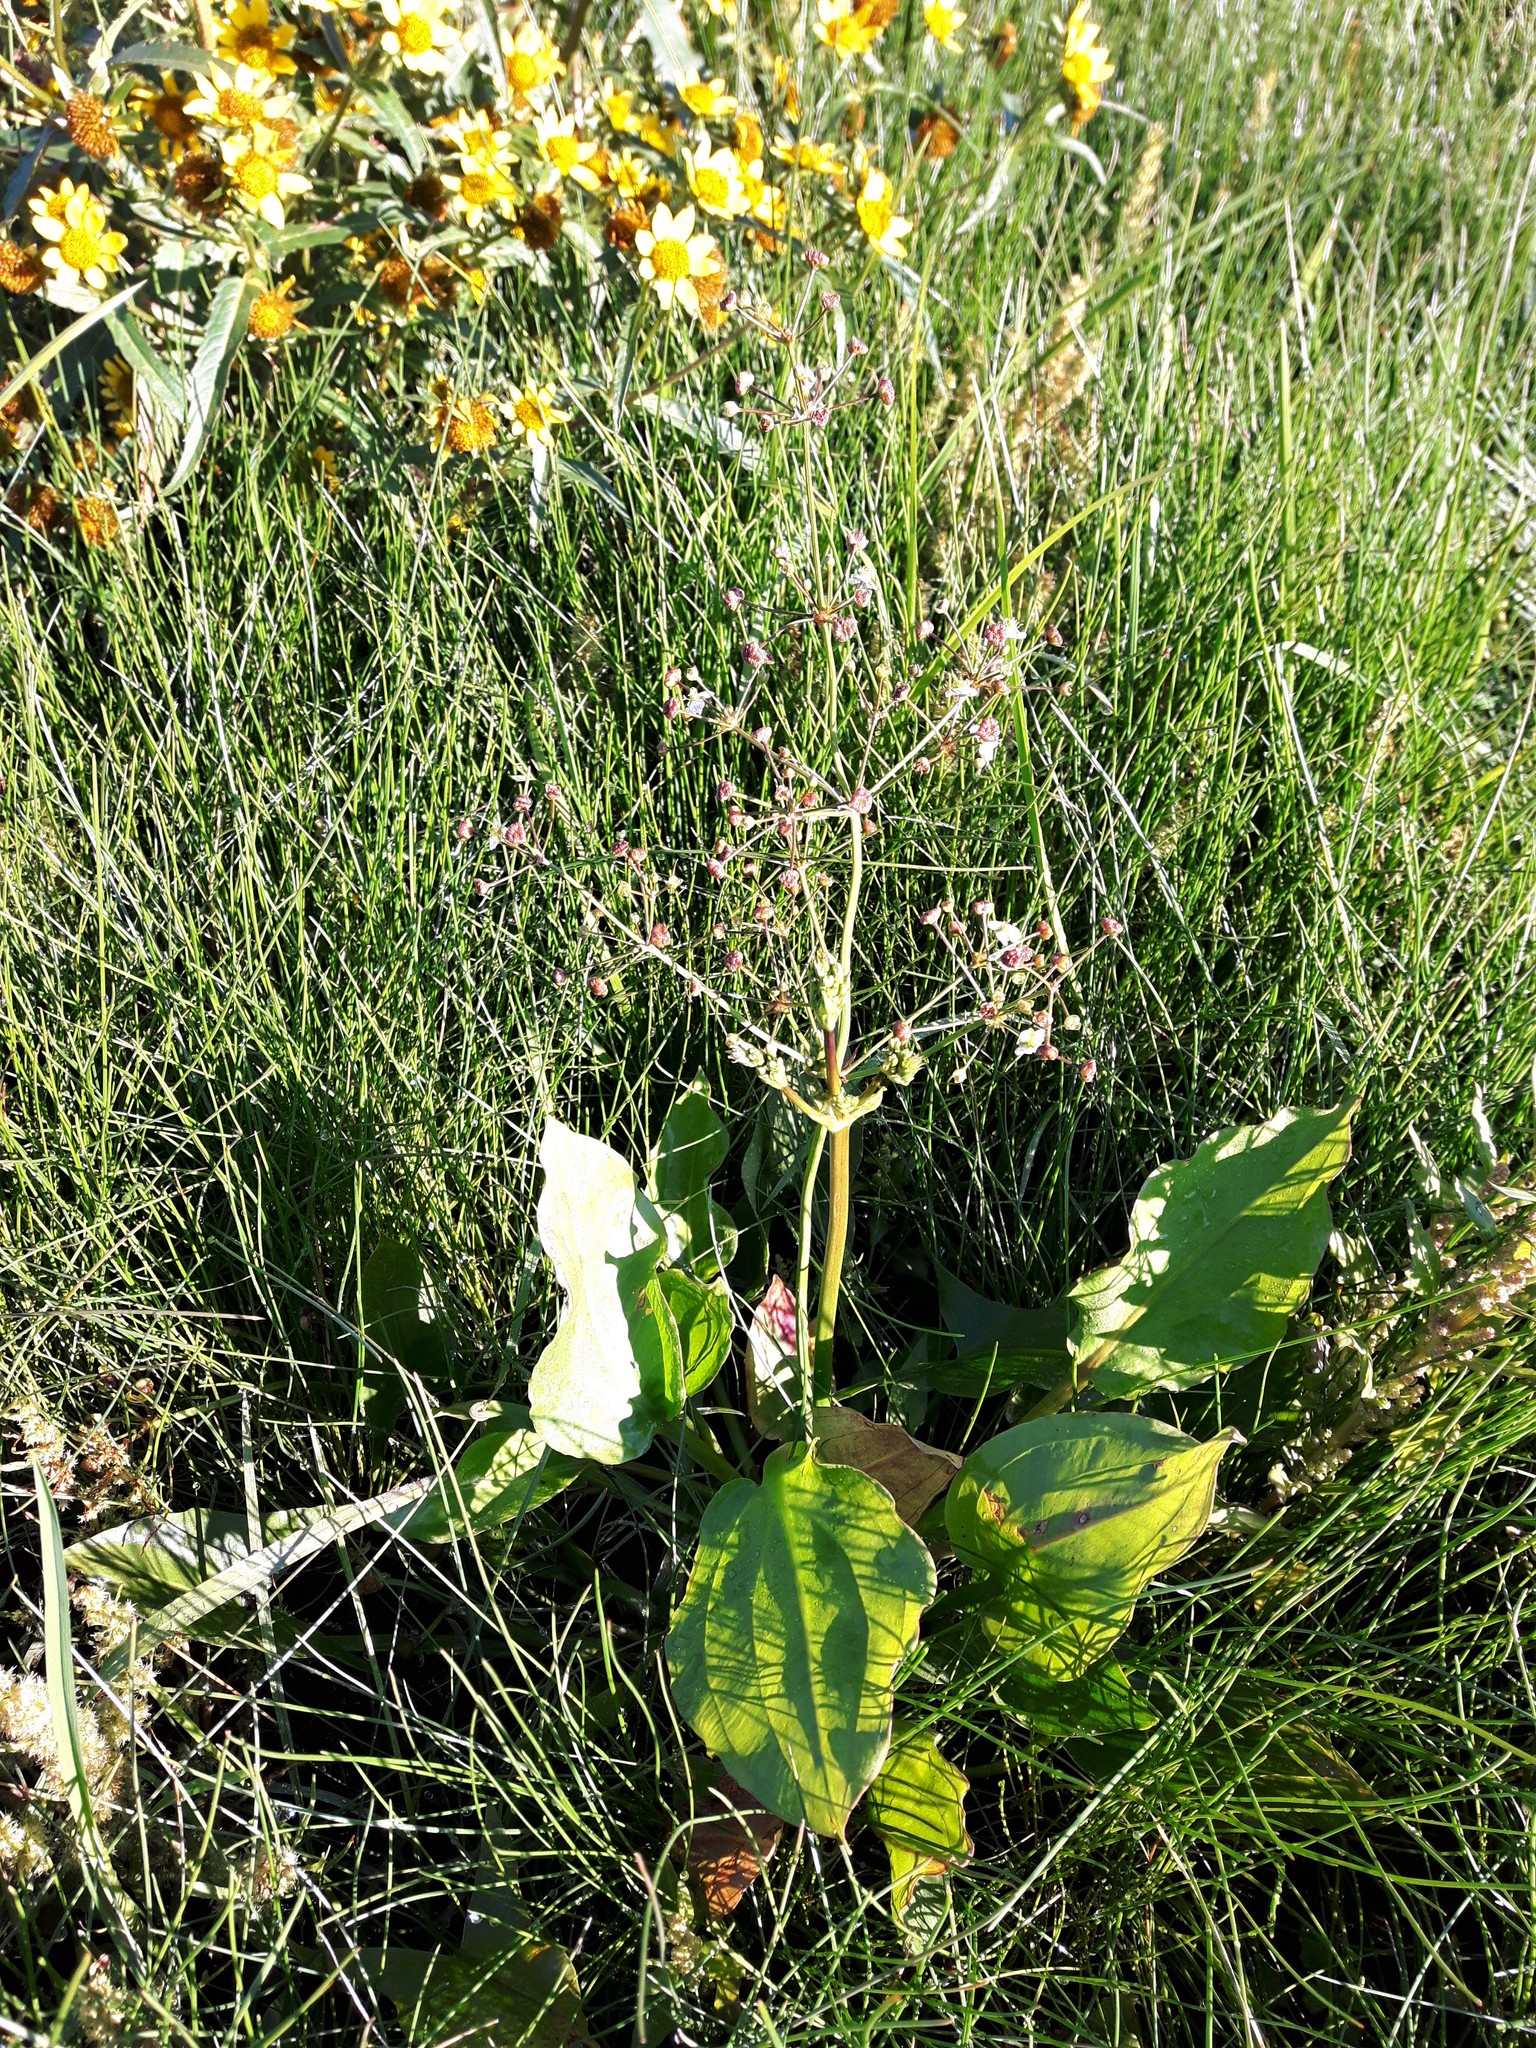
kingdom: Plantae
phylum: Tracheophyta
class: Liliopsida
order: Alismatales
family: Alismataceae
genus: Alisma
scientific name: Alisma triviale
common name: Northern water-plantain
